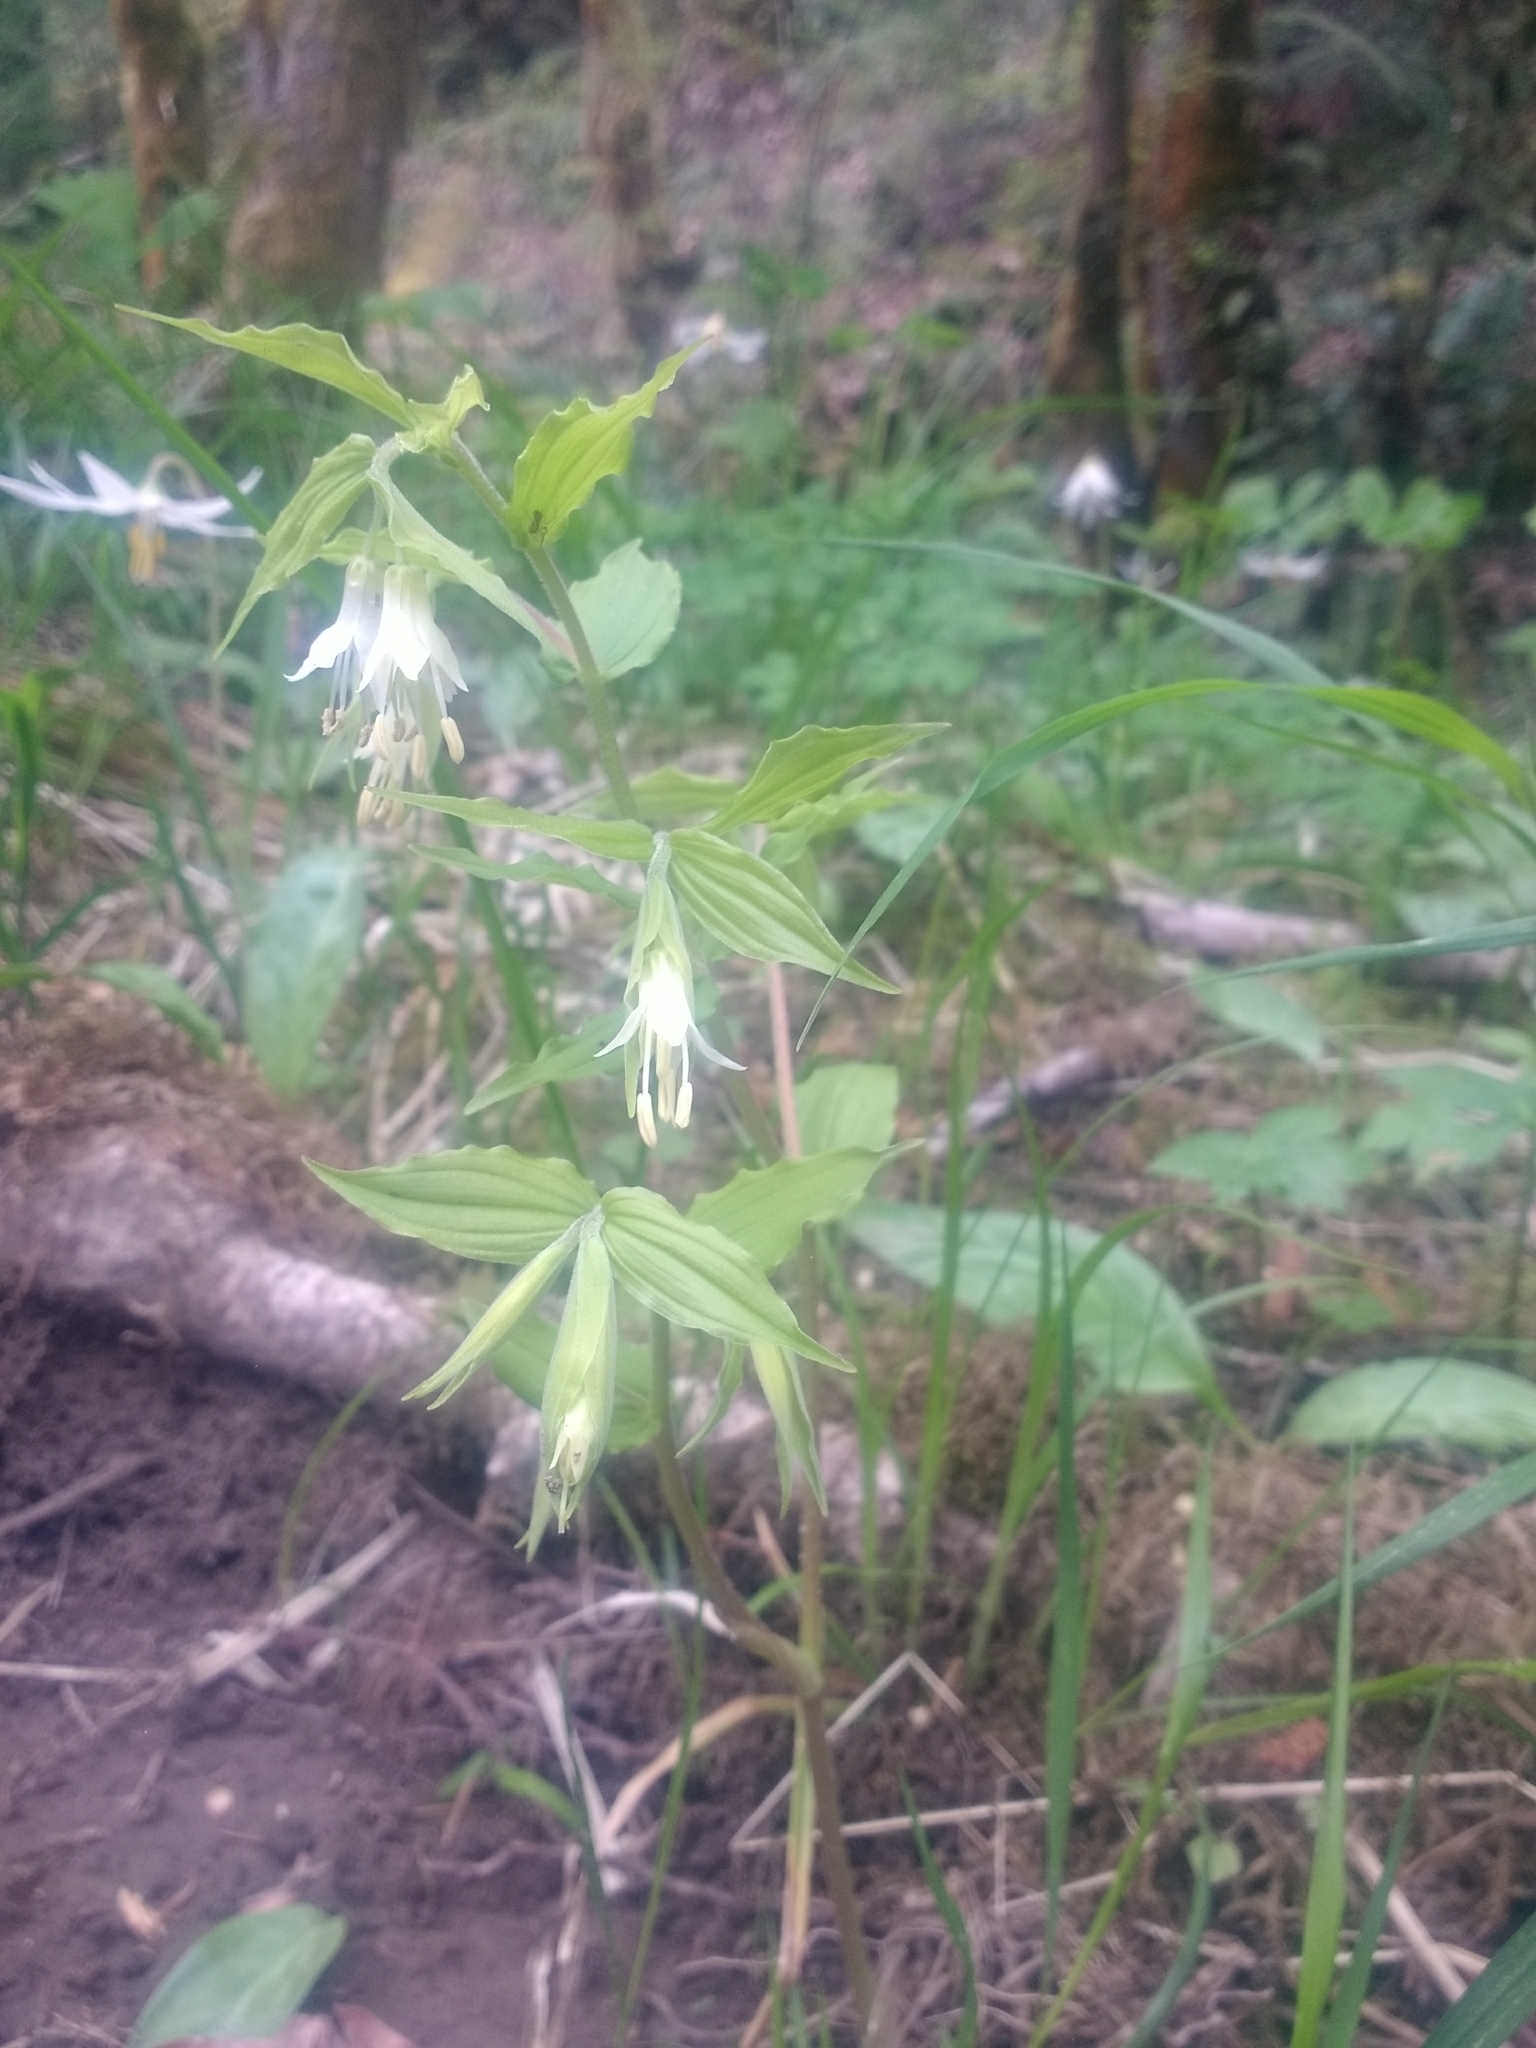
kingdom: Plantae
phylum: Tracheophyta
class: Liliopsida
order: Liliales
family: Liliaceae
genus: Prosartes
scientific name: Prosartes hookeri
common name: Fairy-bells
